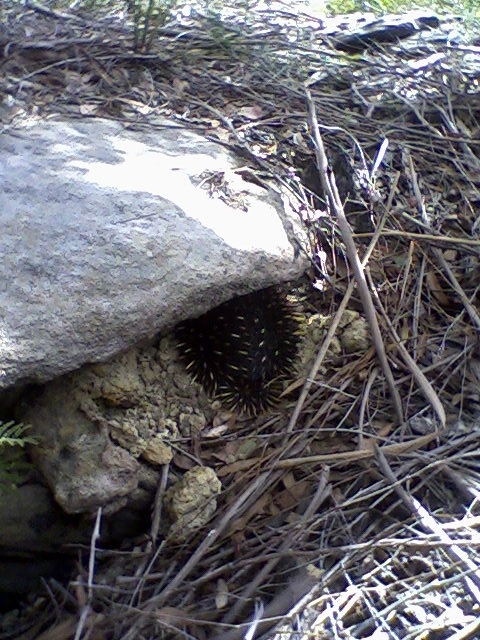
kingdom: Animalia
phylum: Chordata
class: Mammalia
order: Monotremata
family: Tachyglossidae
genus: Tachyglossus
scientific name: Tachyglossus aculeatus
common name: Short-beaked echidna
